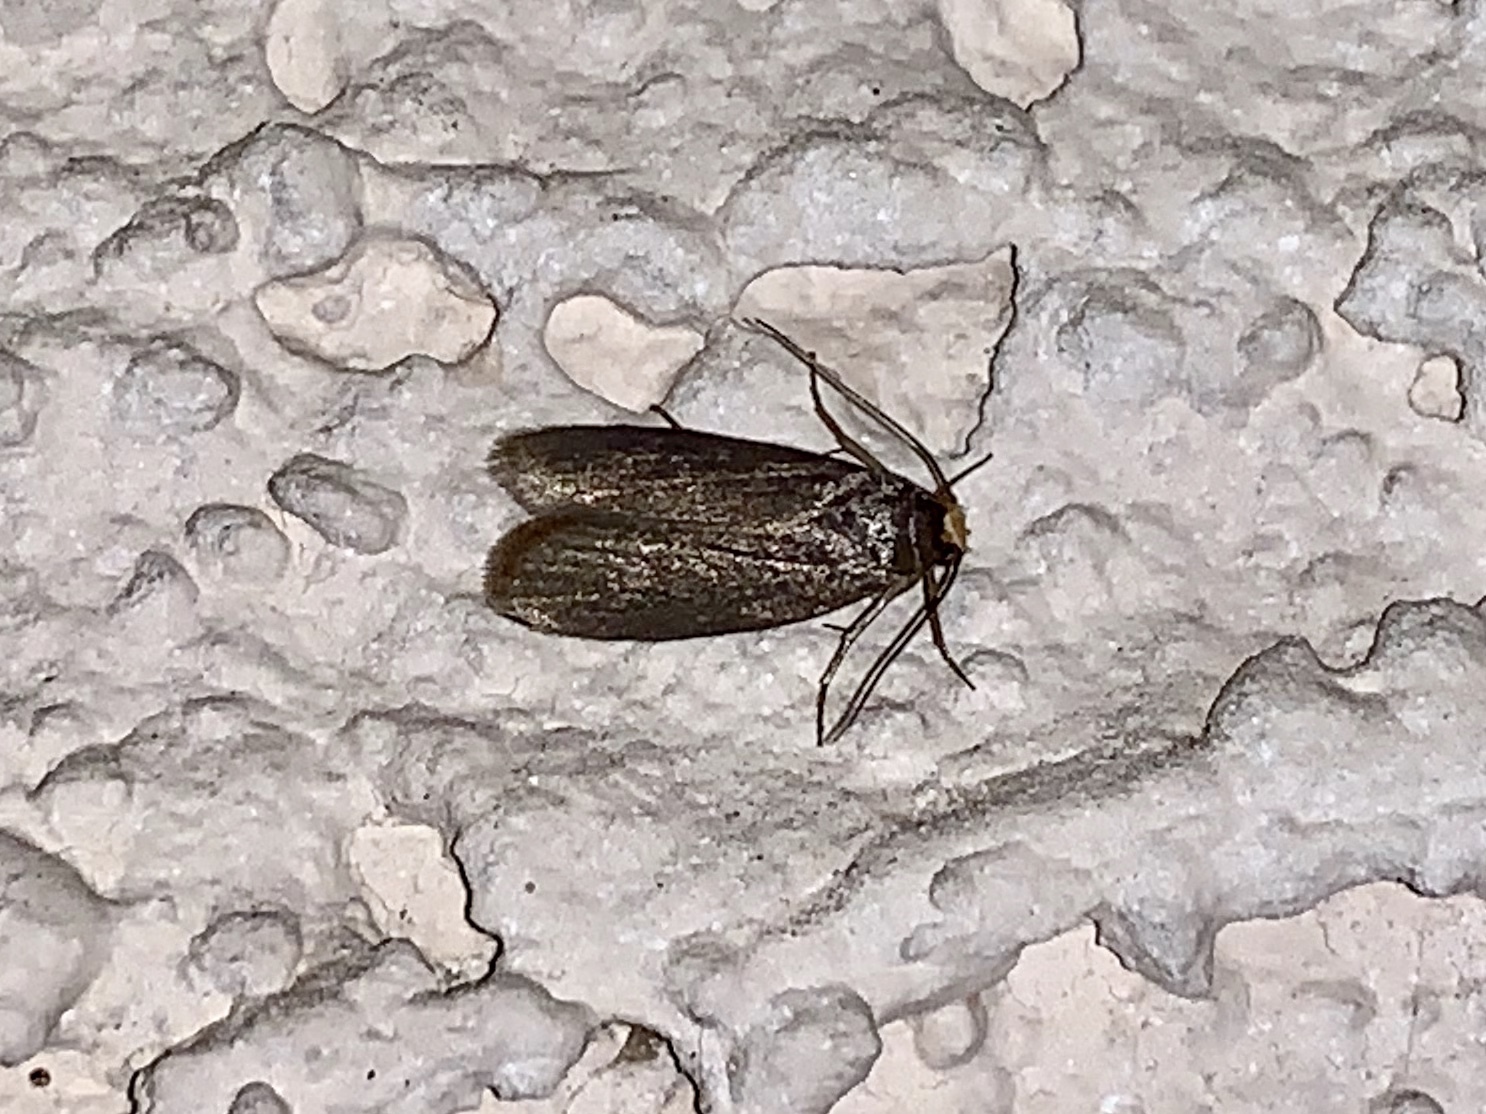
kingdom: Animalia
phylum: Arthropoda
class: Insecta
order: Lepidoptera
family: Pyralidae
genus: Achroia
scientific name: Achroia grisella
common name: Lesser wax moth
